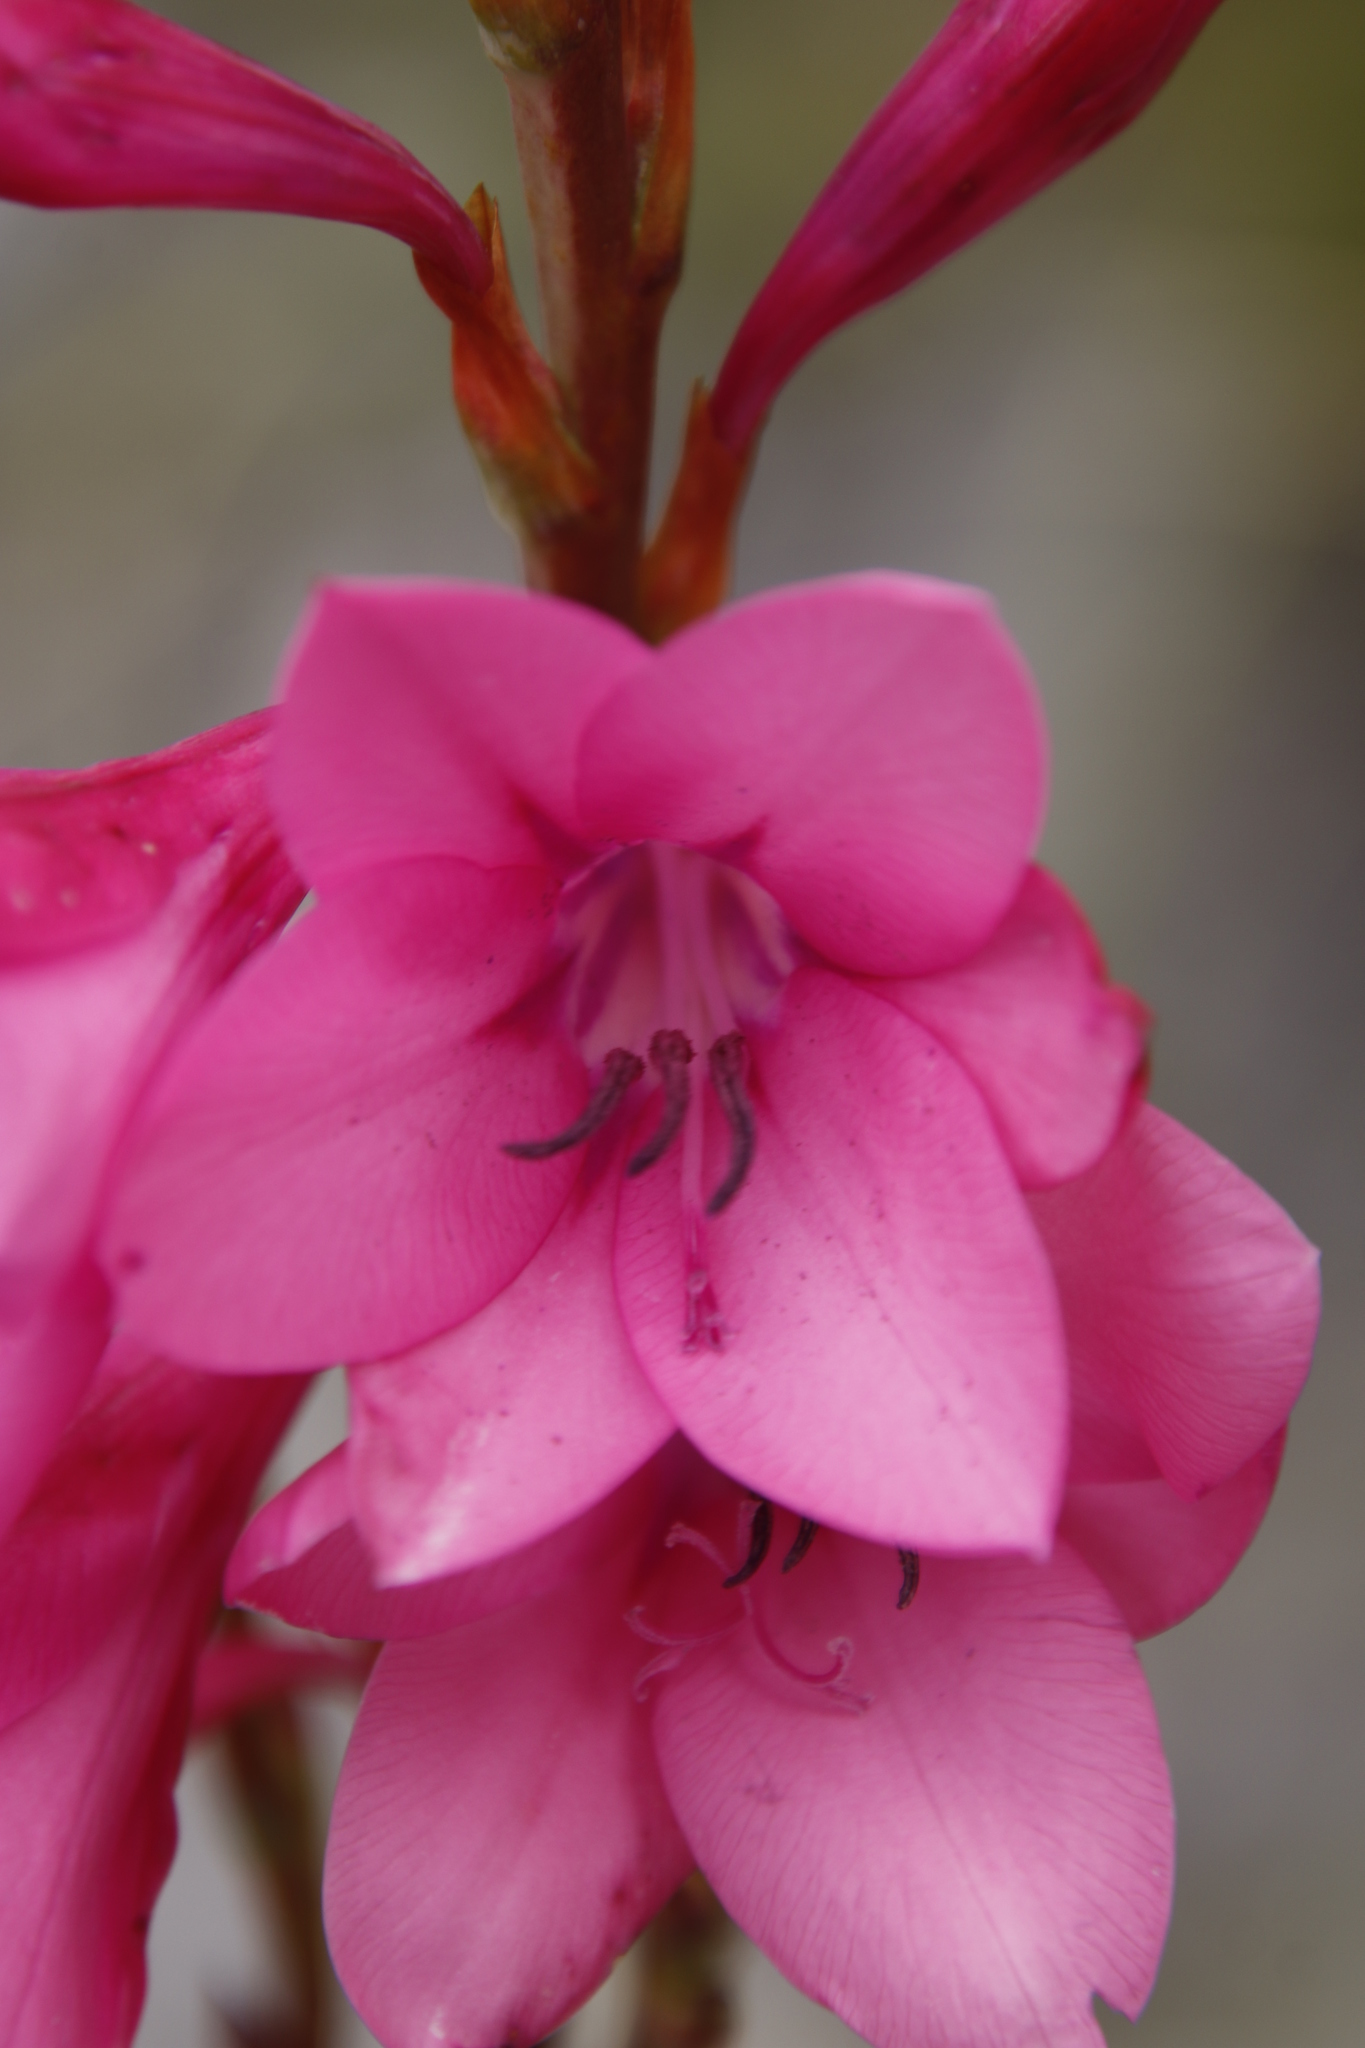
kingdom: Plantae
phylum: Tracheophyta
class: Liliopsida
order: Asparagales
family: Iridaceae
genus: Watsonia
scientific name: Watsonia borbonica
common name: Bugle-lily
